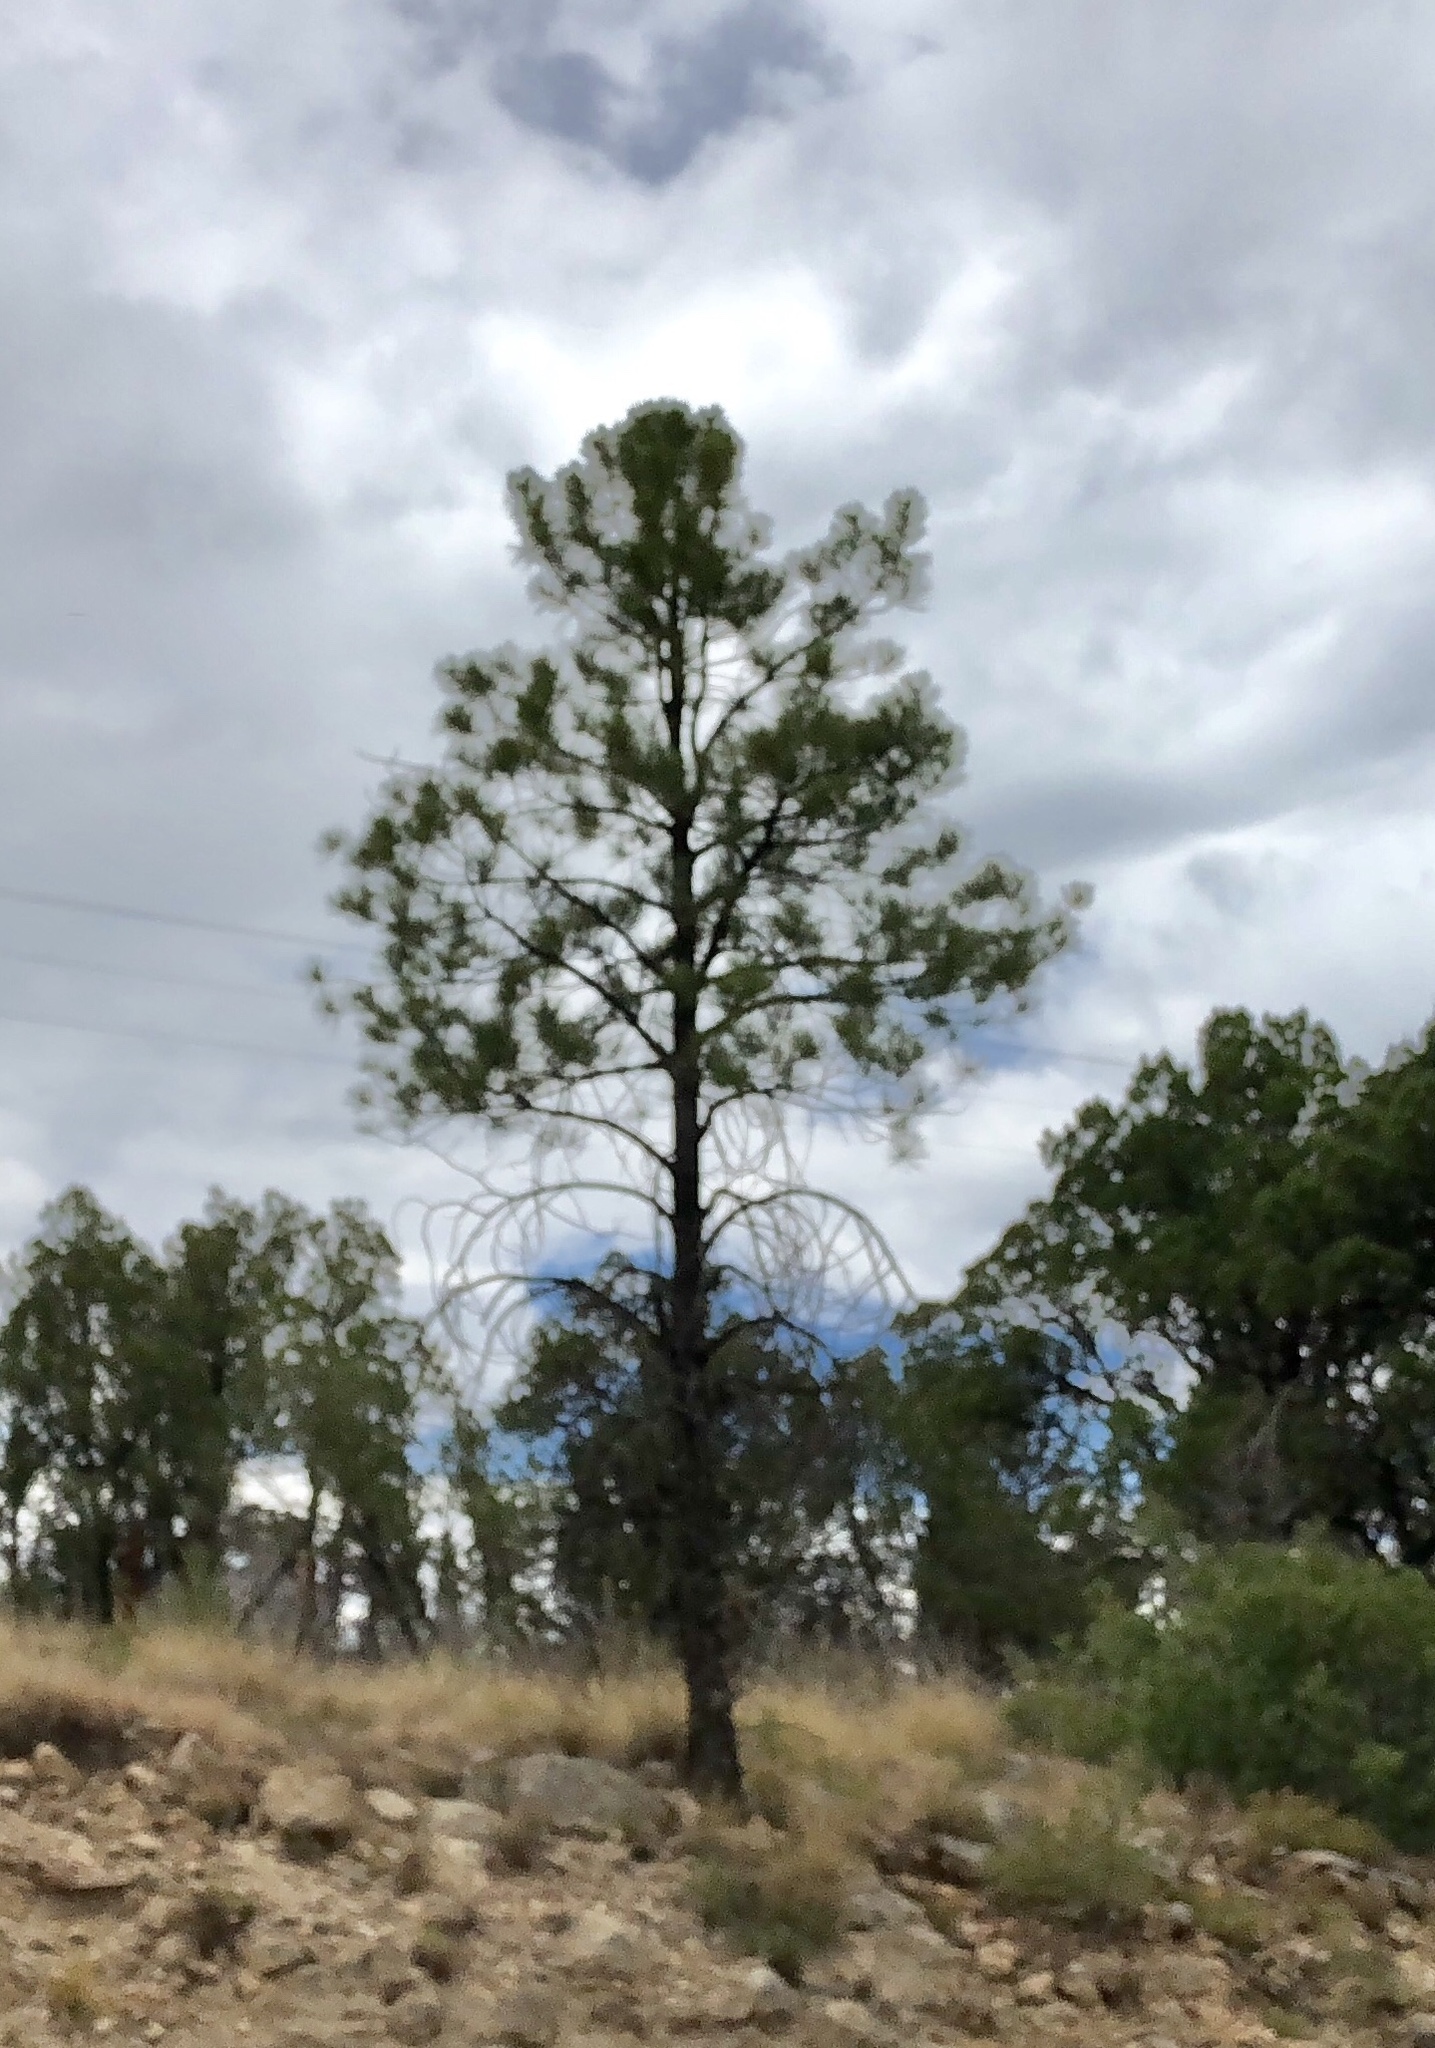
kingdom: Plantae
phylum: Tracheophyta
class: Pinopsida
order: Pinales
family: Pinaceae
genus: Pinus
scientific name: Pinus ponderosa
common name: Western yellow-pine
